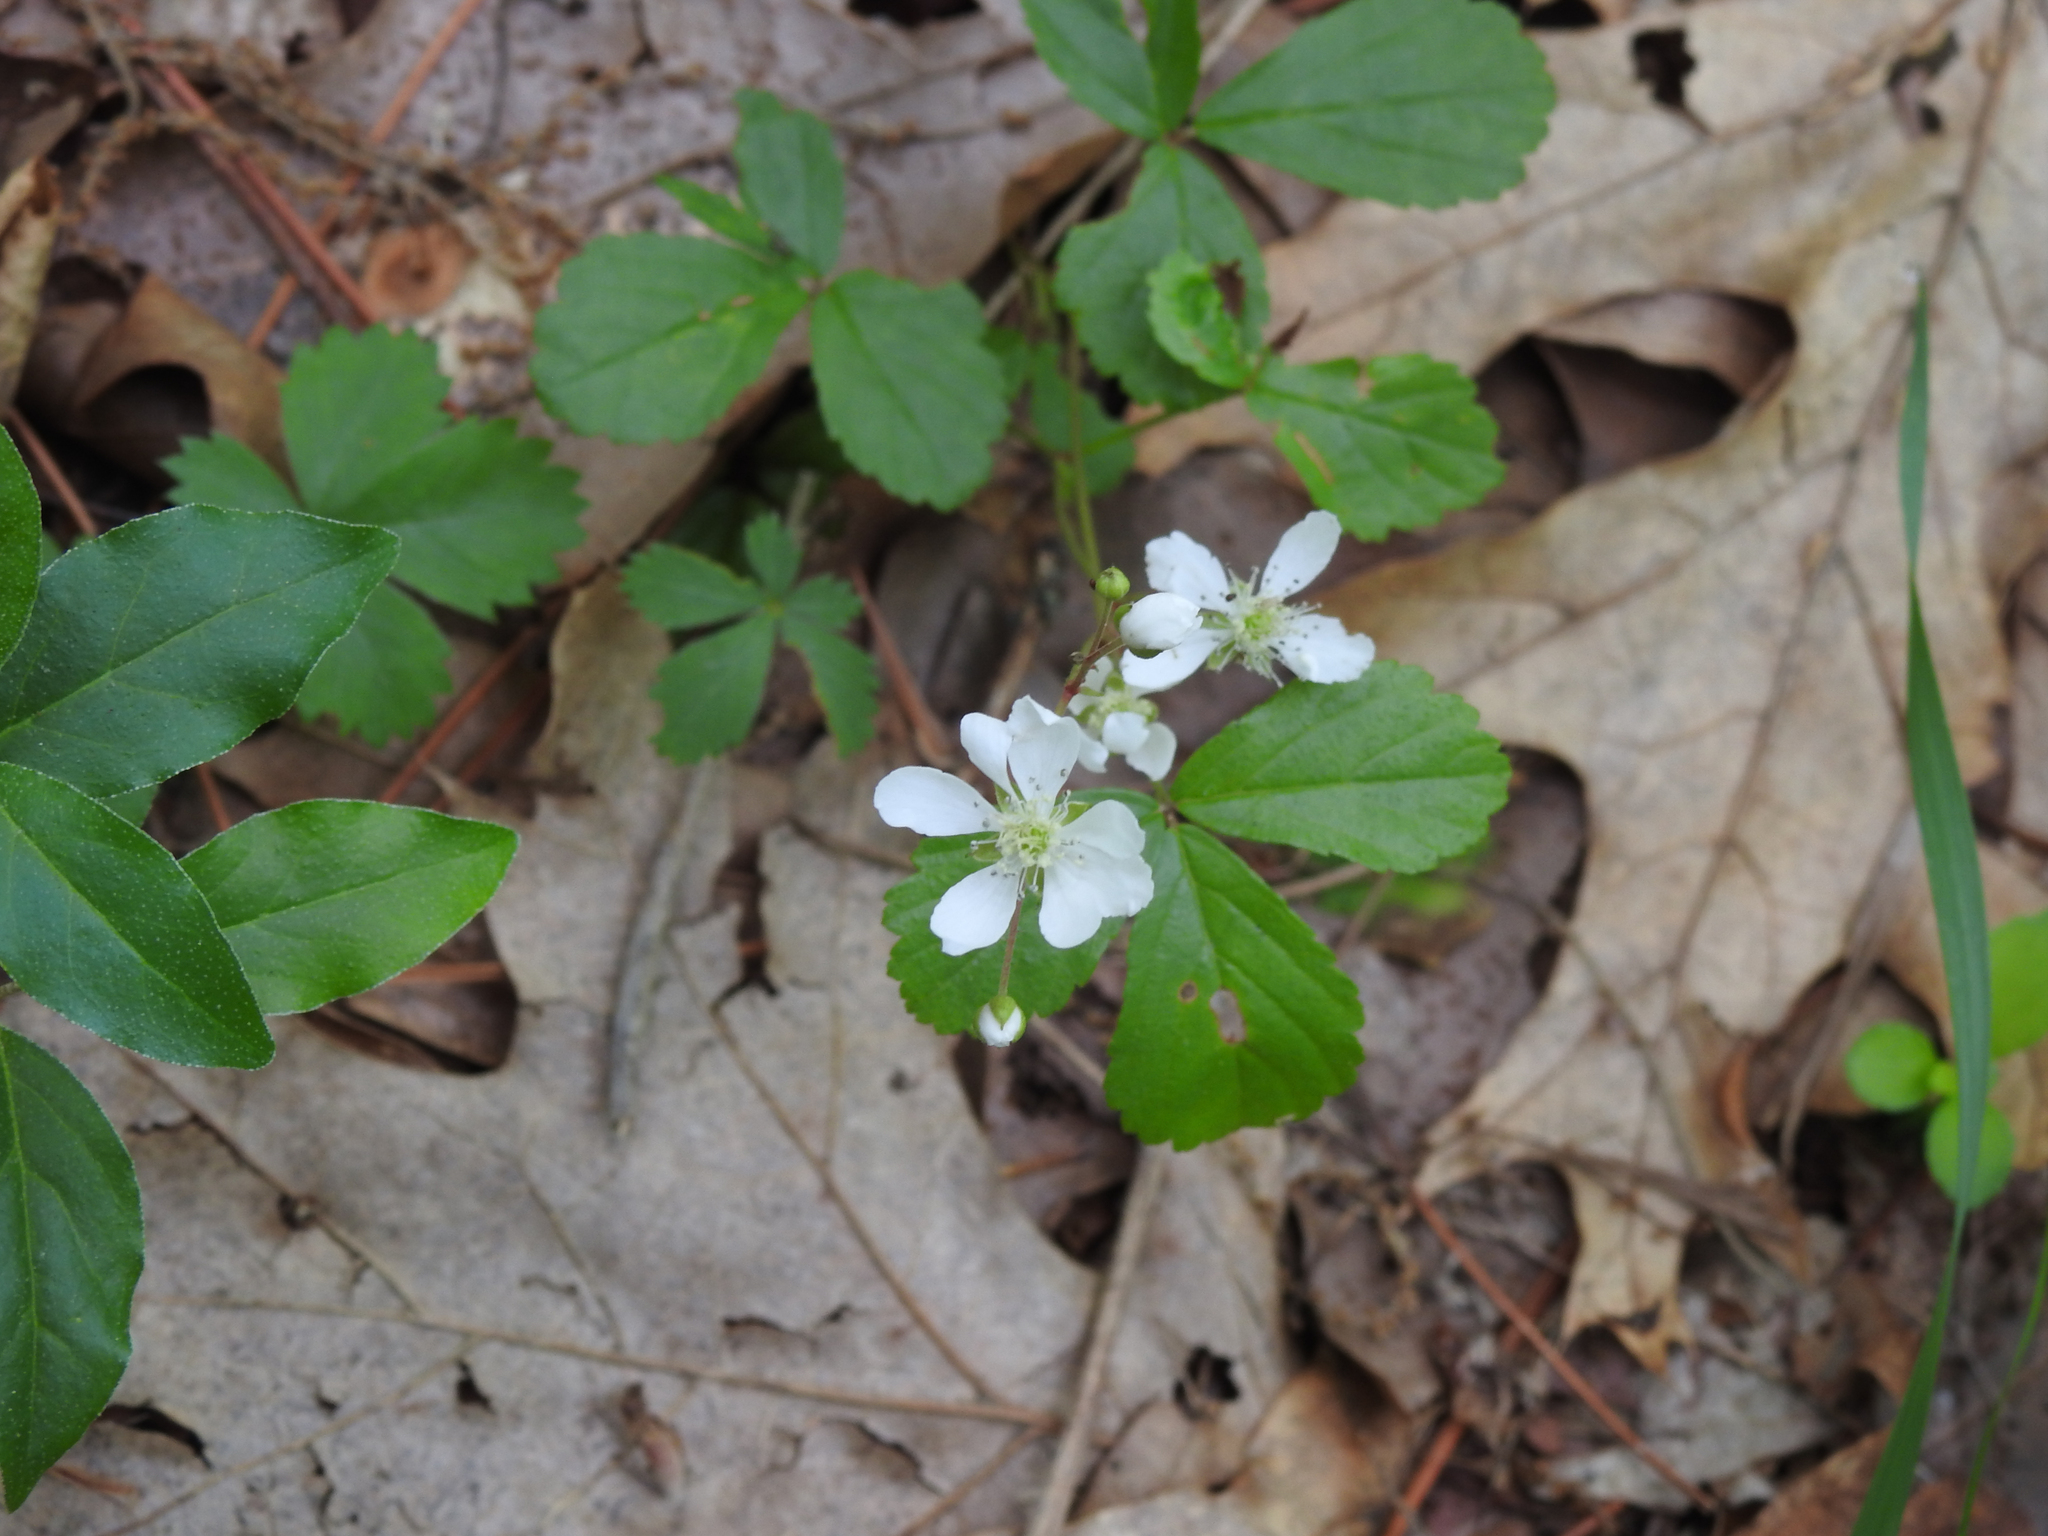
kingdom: Plantae
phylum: Tracheophyta
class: Magnoliopsida
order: Rosales
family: Rosaceae
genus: Rubus
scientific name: Rubus hispidus
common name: Running blackberry
